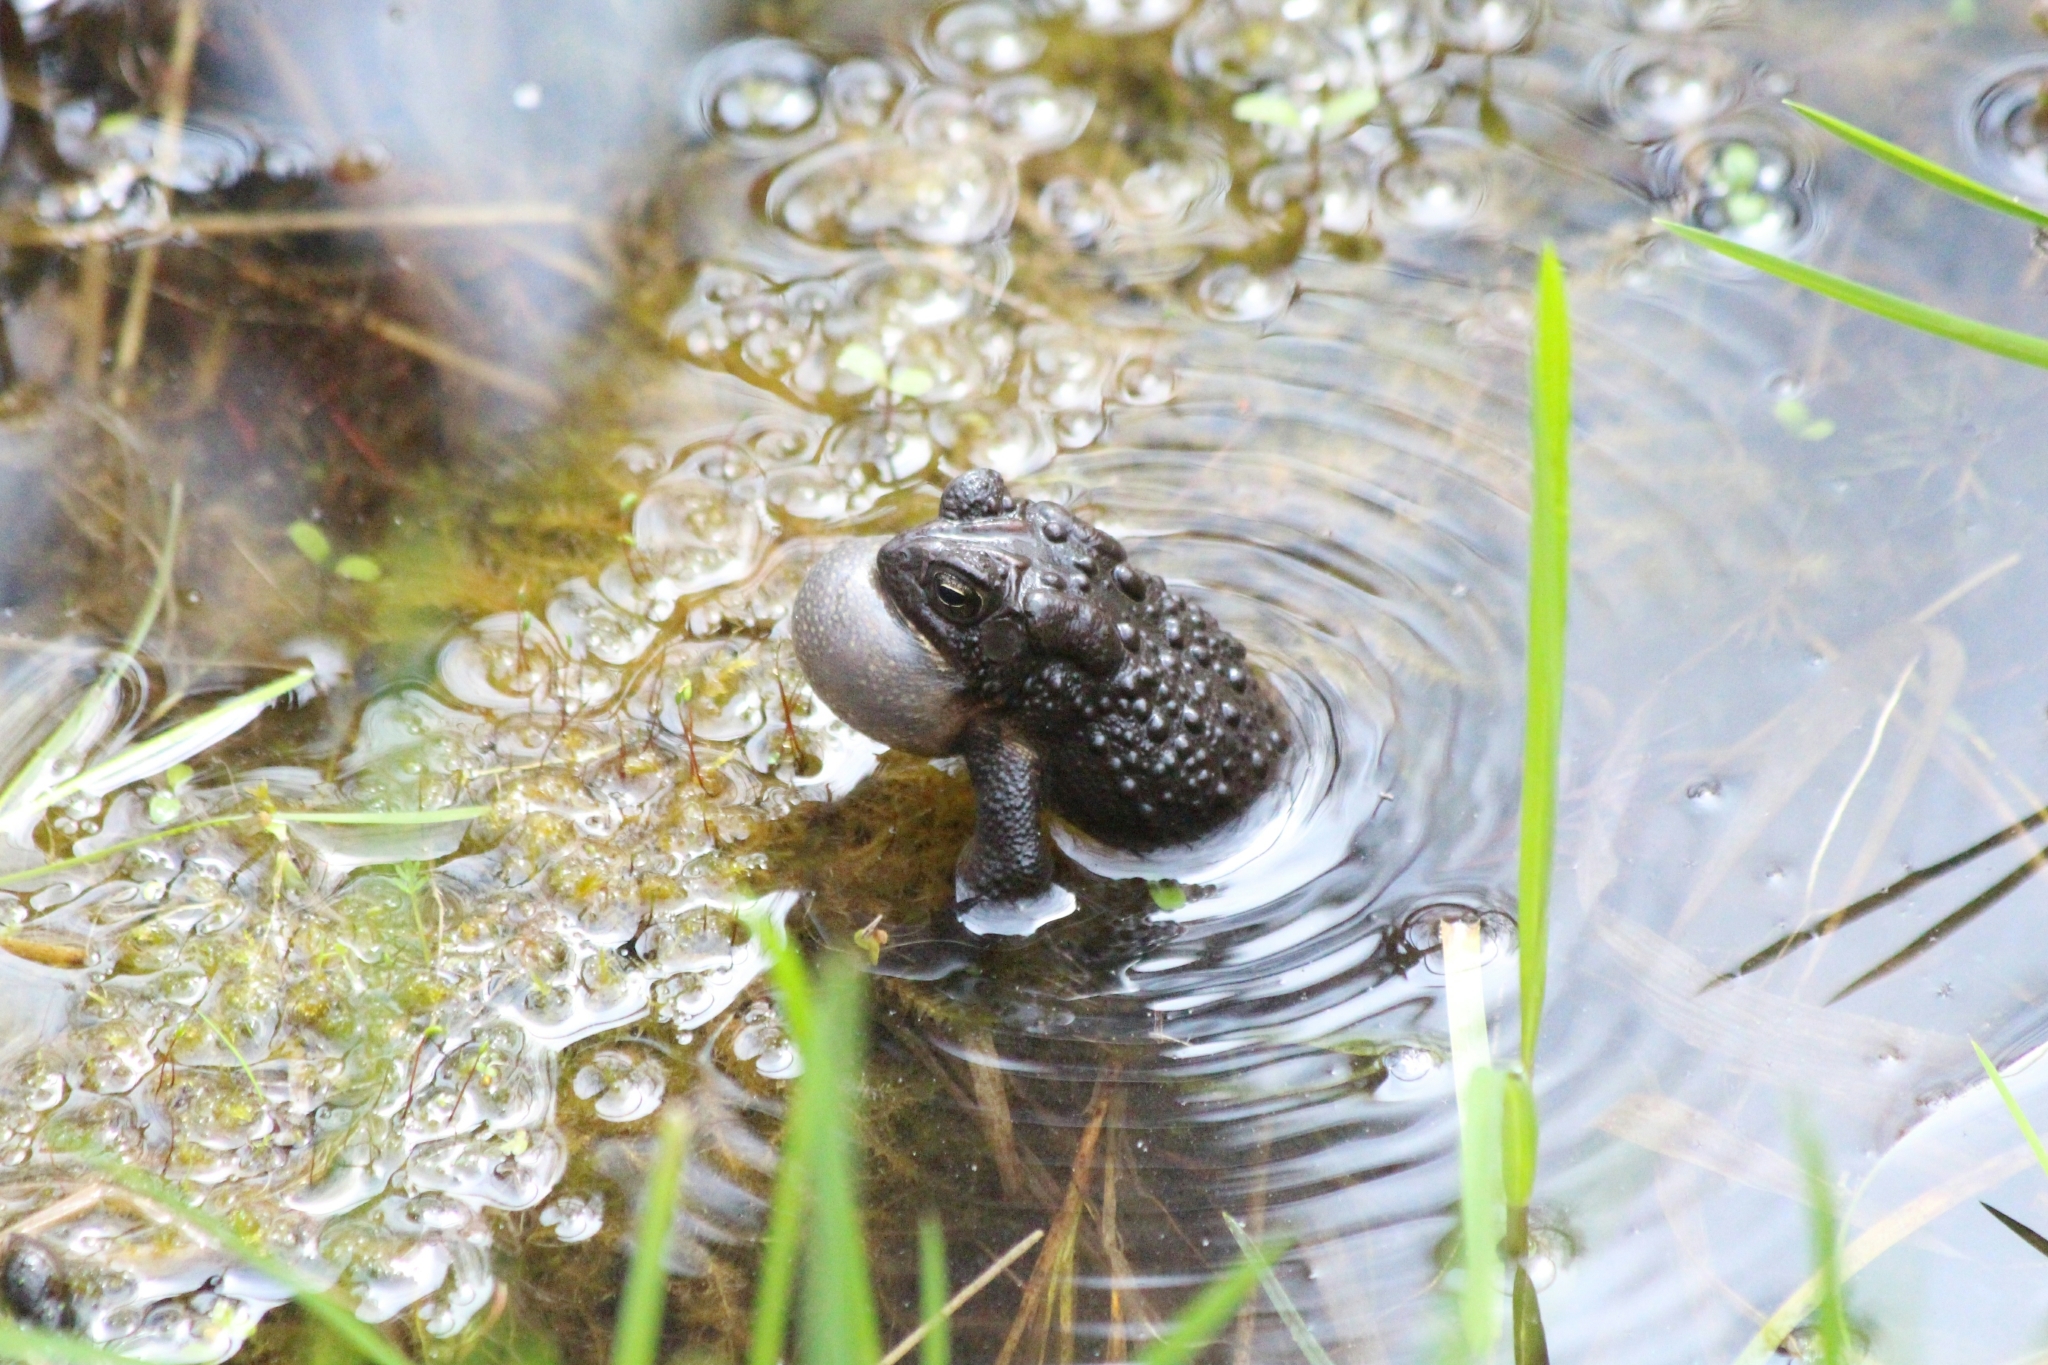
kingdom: Animalia
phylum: Chordata
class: Amphibia
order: Anura
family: Bufonidae
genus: Anaxyrus
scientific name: Anaxyrus americanus
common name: American toad
